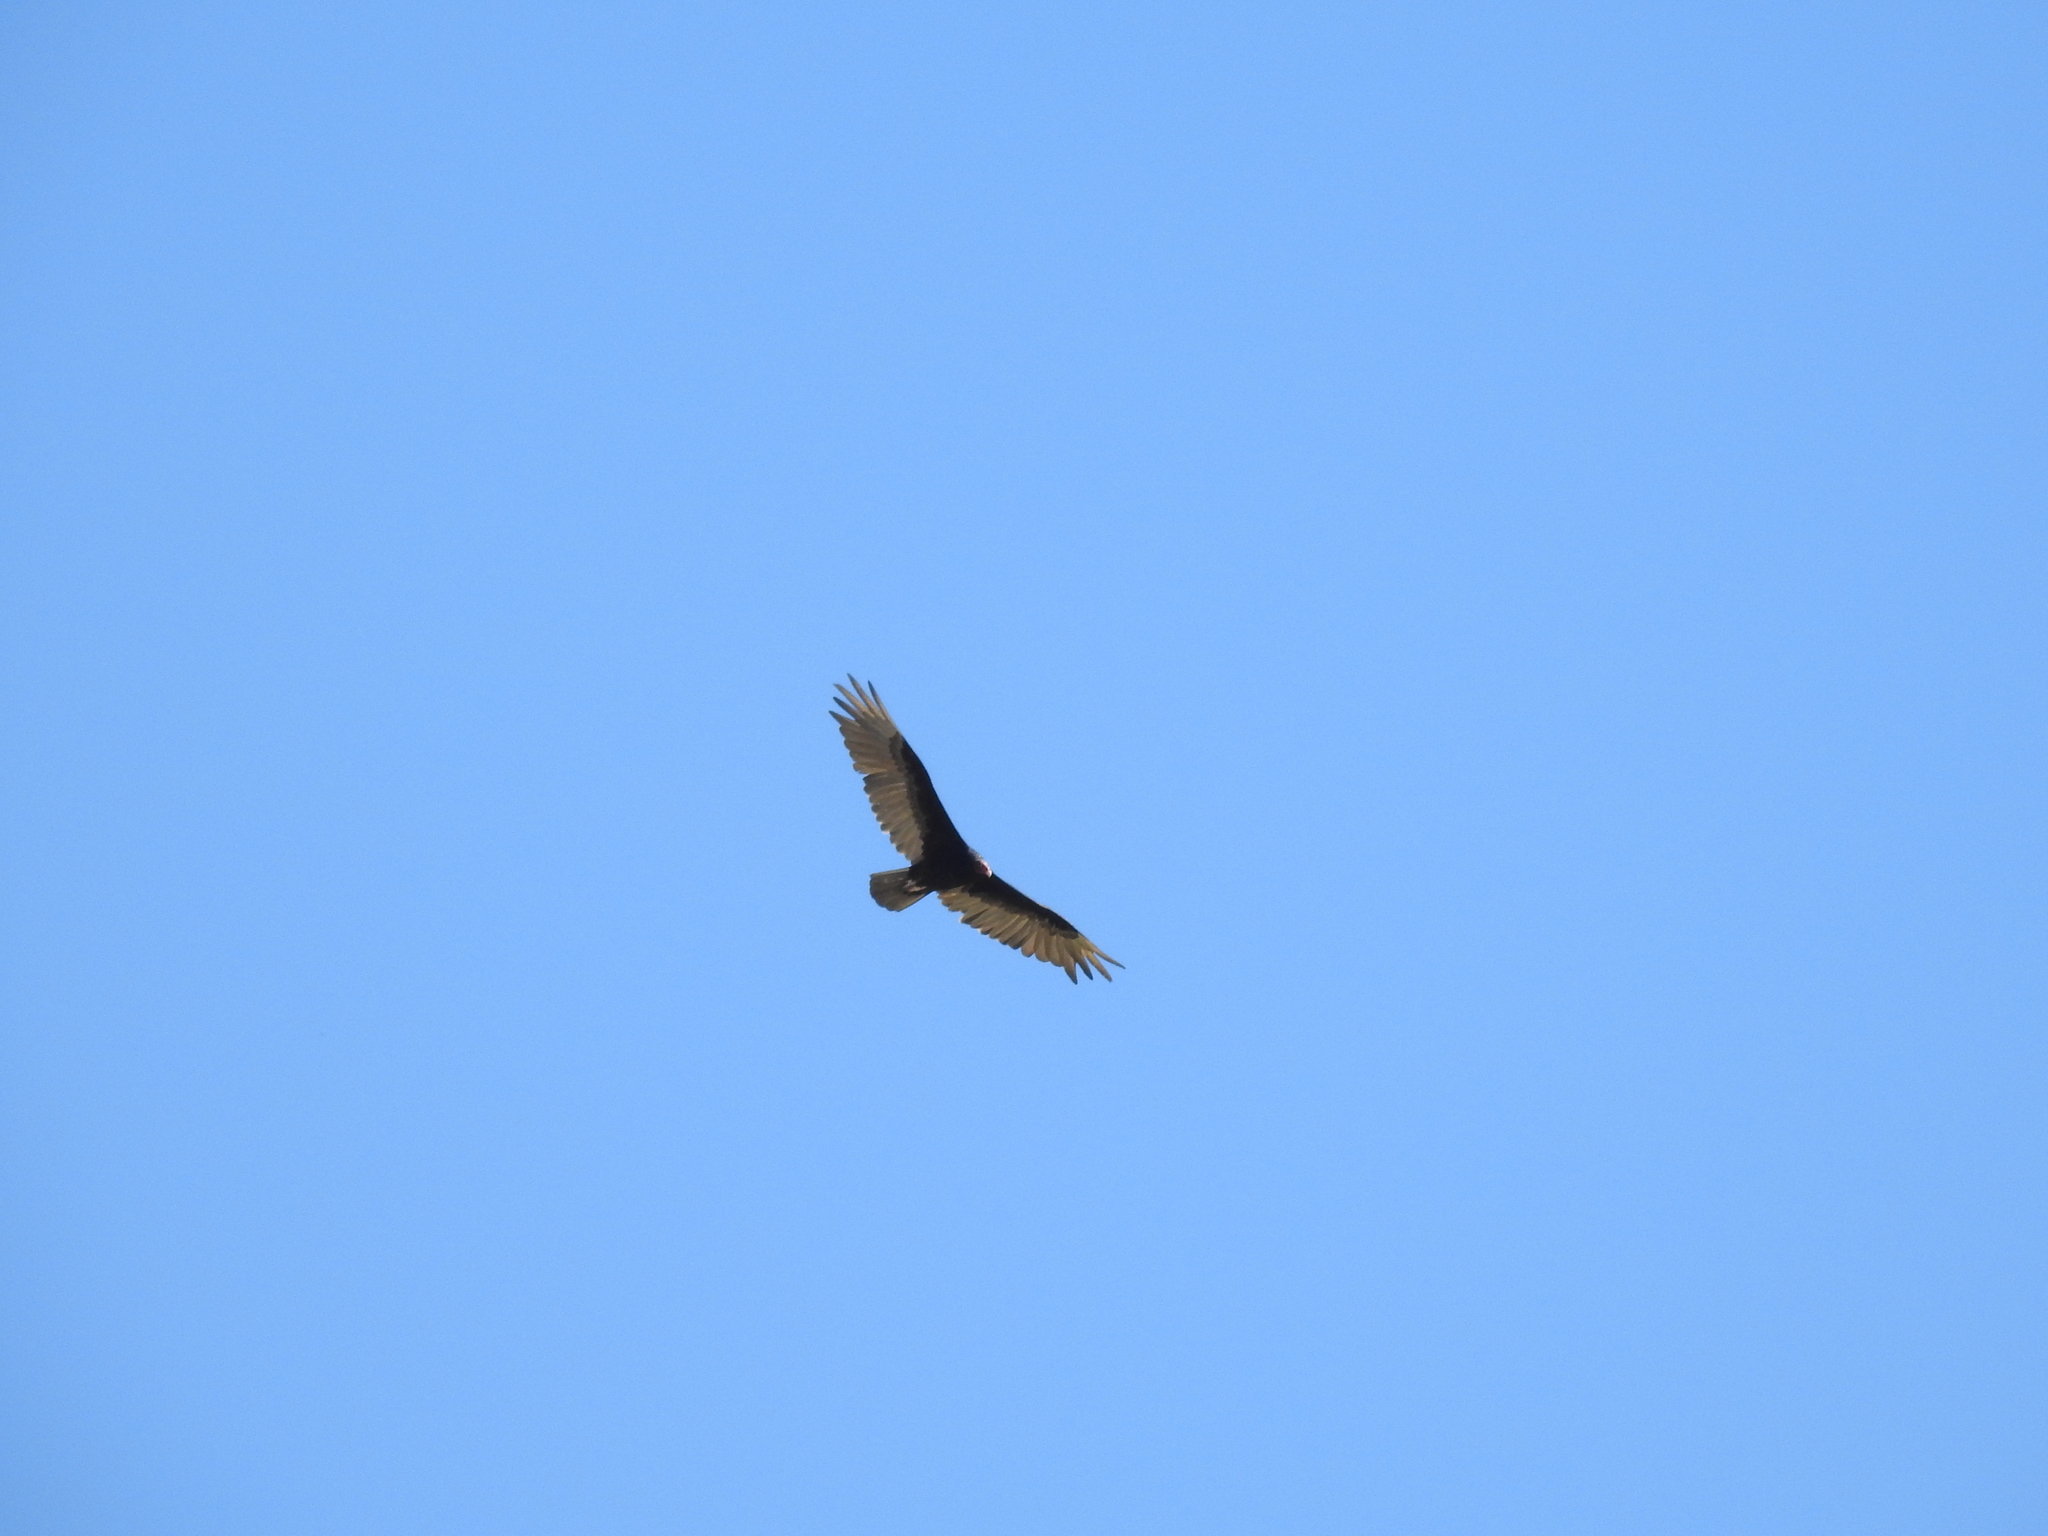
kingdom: Animalia
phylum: Chordata
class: Aves
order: Accipitriformes
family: Cathartidae
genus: Cathartes
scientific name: Cathartes aura
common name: Turkey vulture
